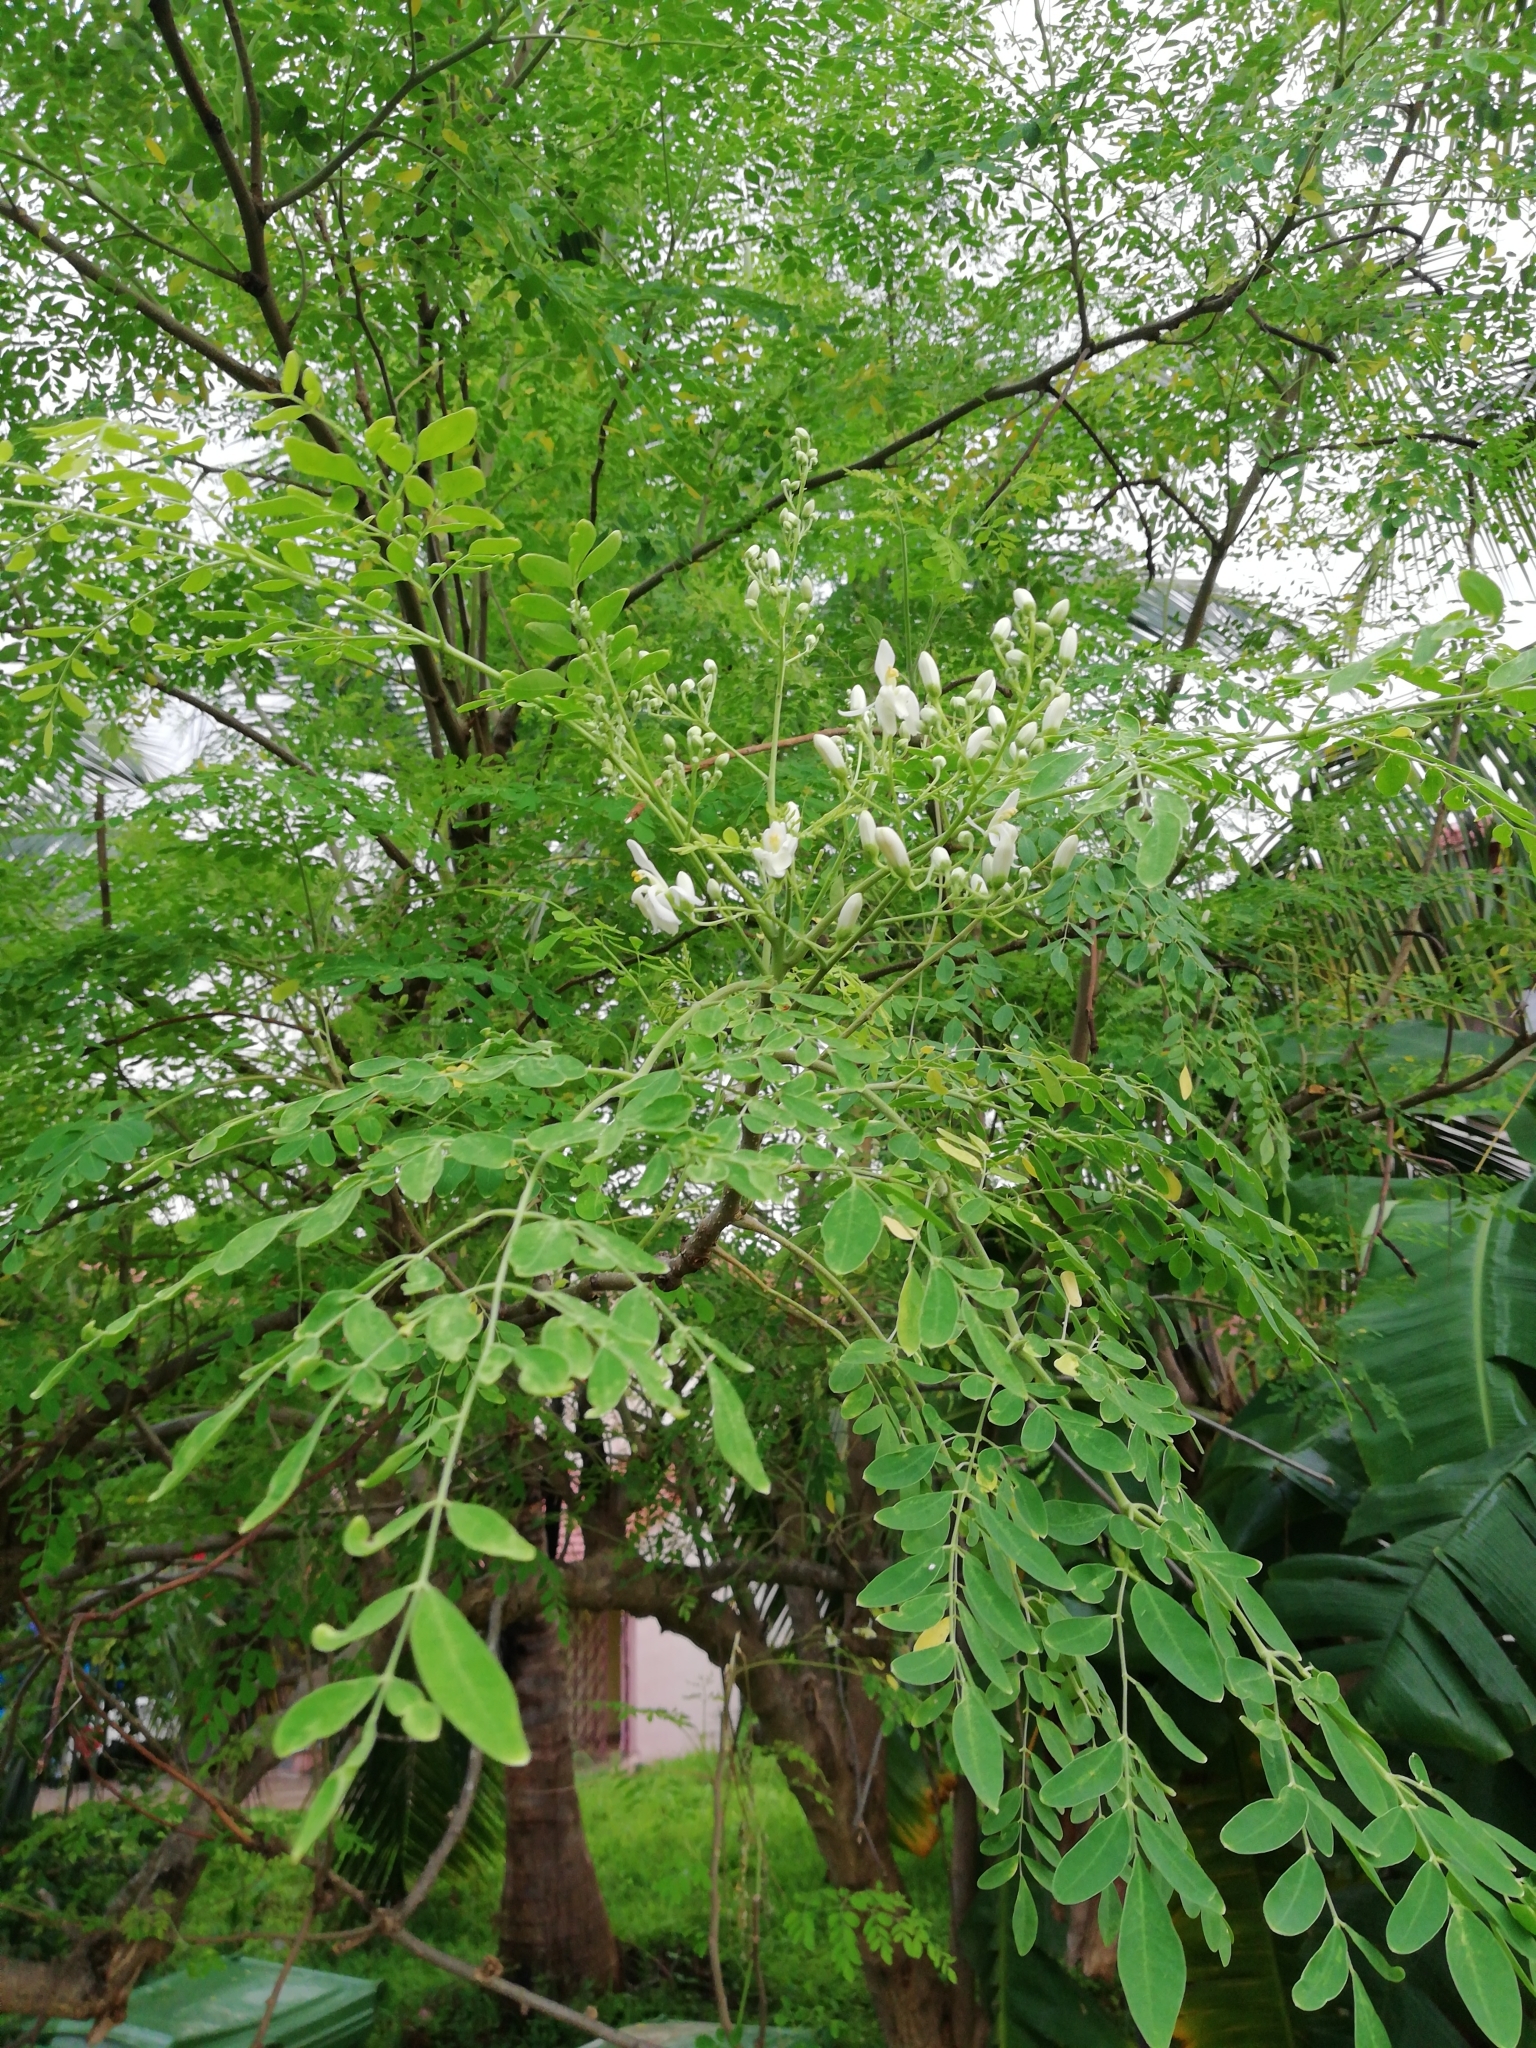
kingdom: Plantae
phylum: Tracheophyta
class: Magnoliopsida
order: Brassicales
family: Moringaceae
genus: Moringa
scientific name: Moringa oleifera
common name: Horseradish-tree
